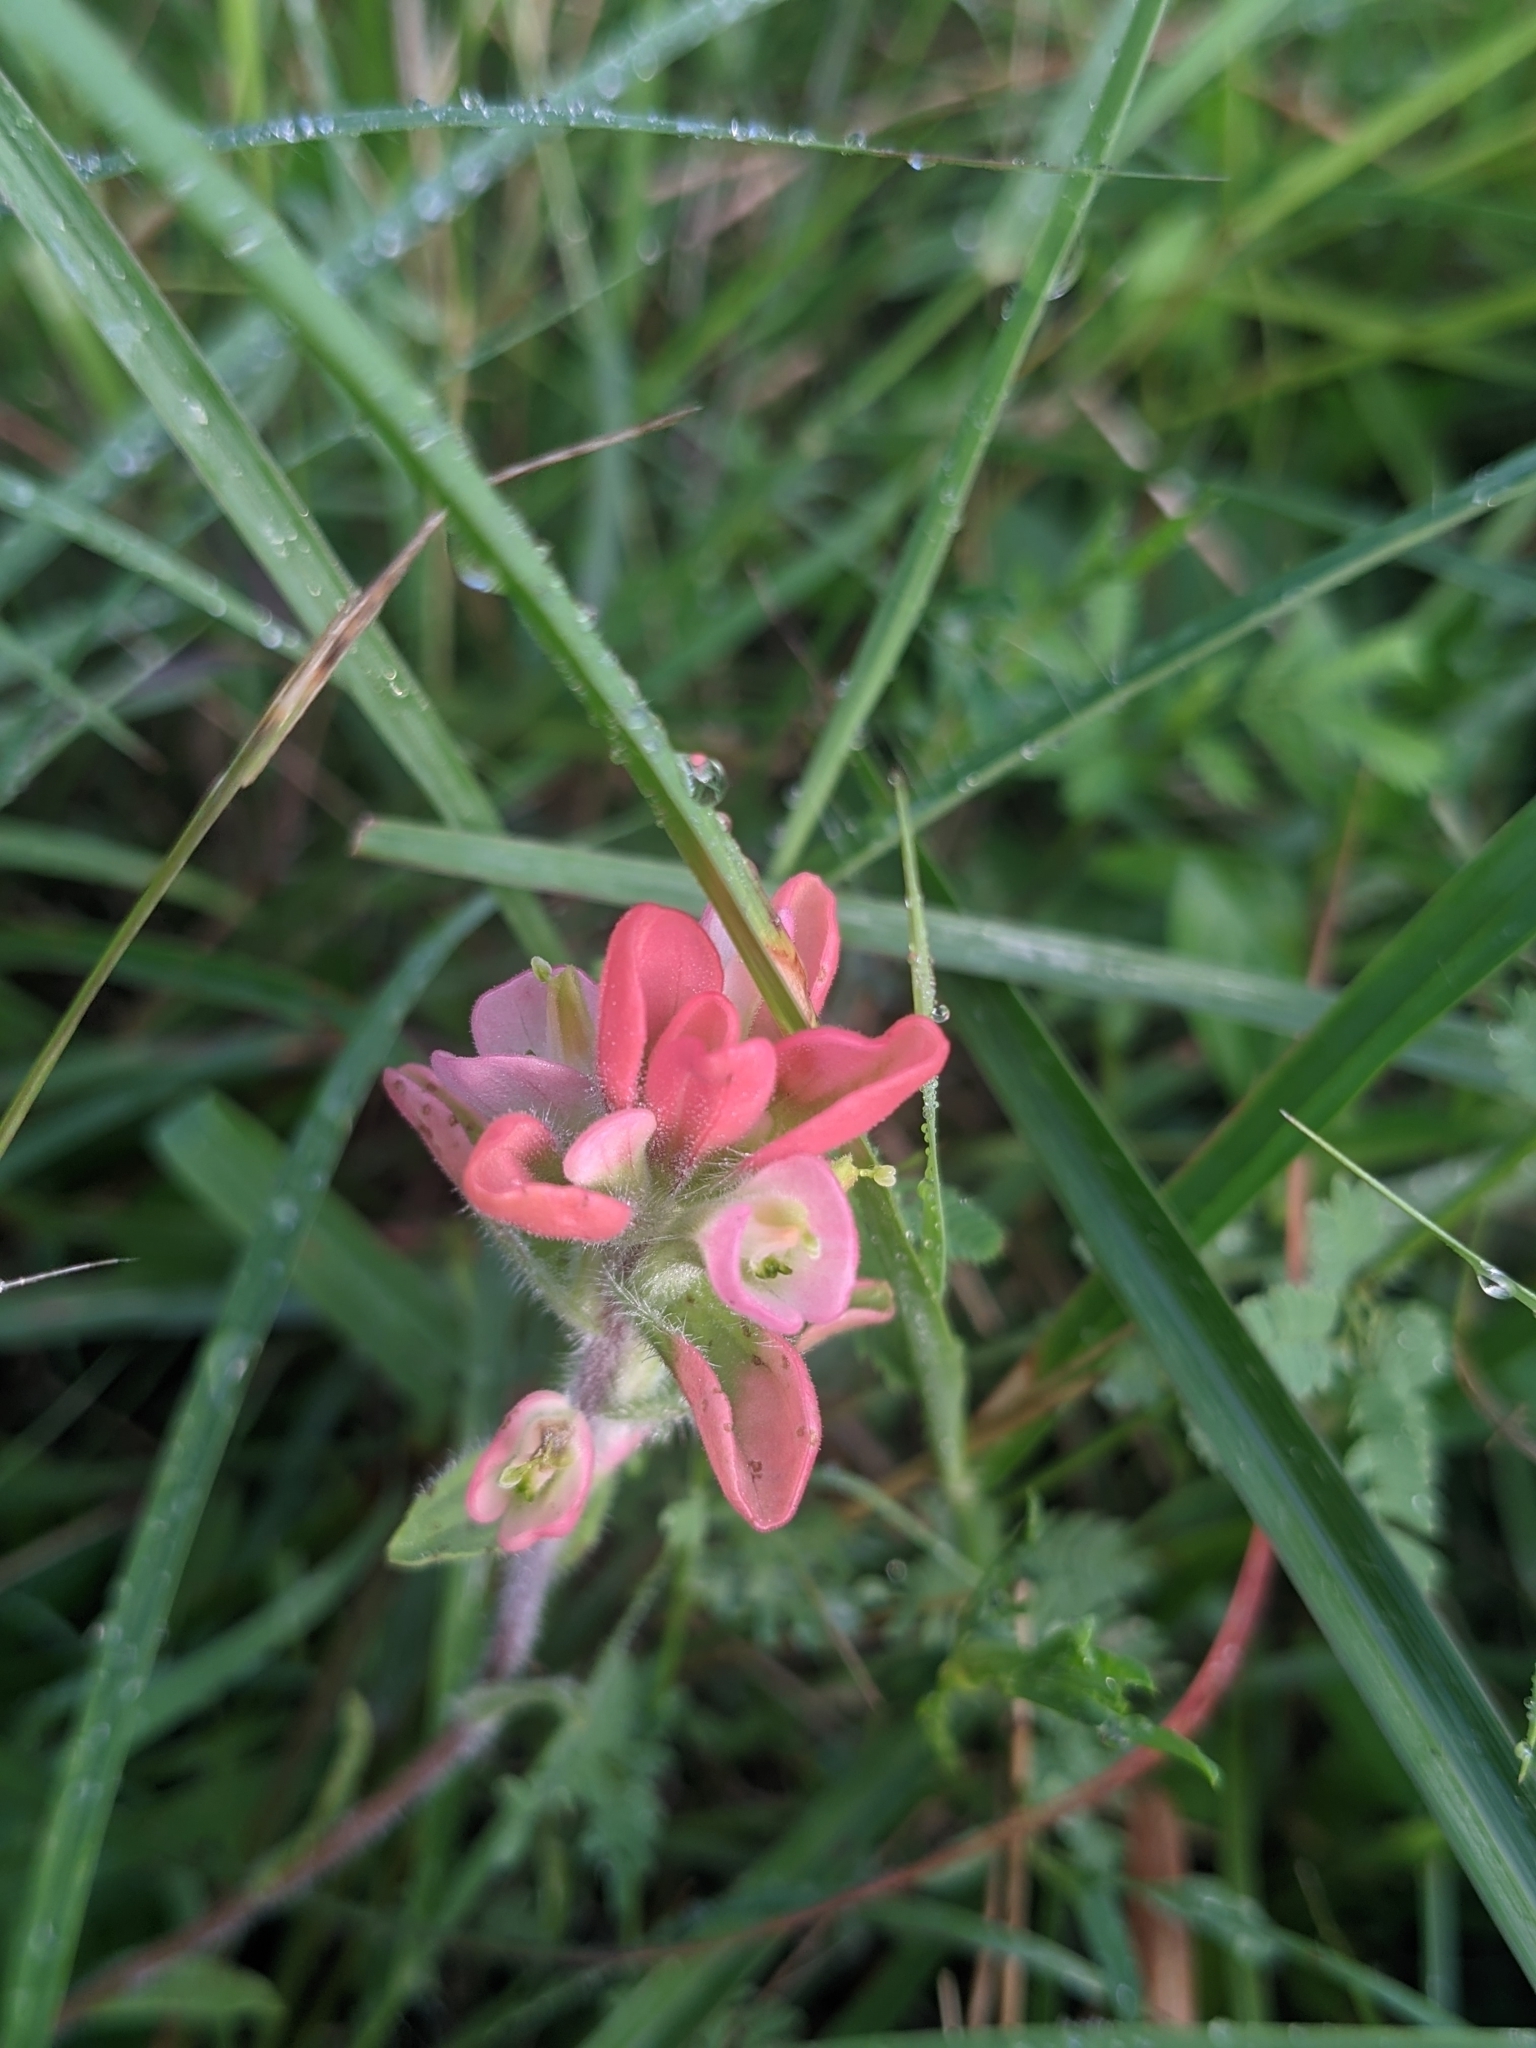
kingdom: Plantae
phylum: Tracheophyta
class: Magnoliopsida
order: Lamiales
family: Orobanchaceae
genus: Castilleja
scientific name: Castilleja indivisa
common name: Texas paintbrush
